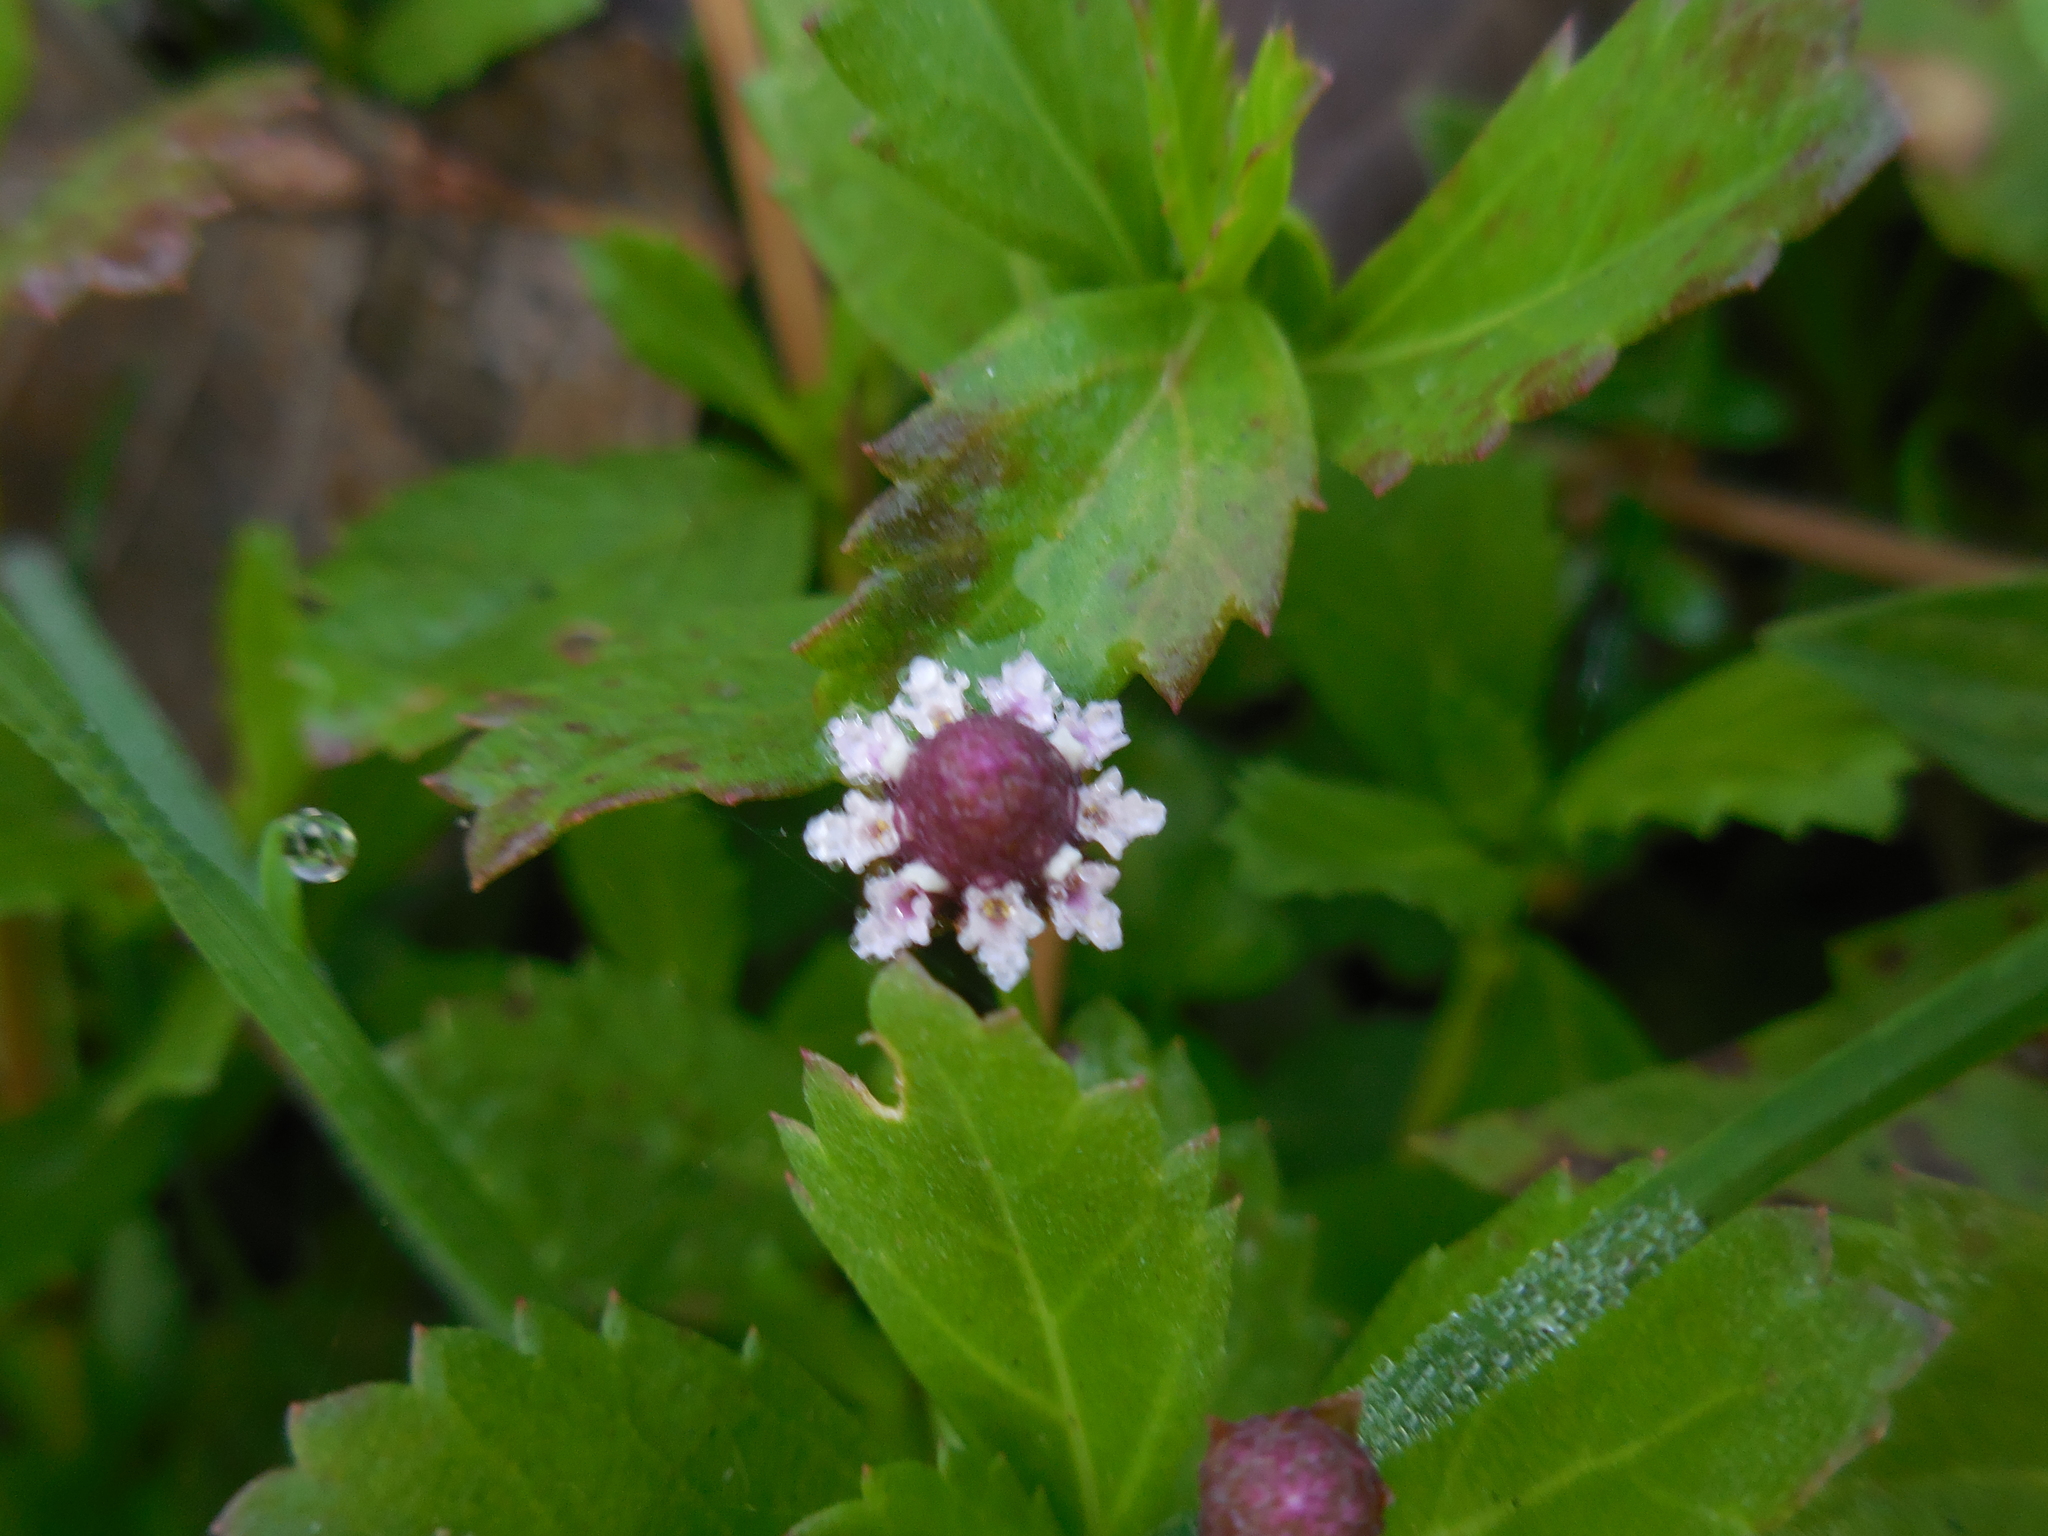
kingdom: Plantae
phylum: Tracheophyta
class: Magnoliopsida
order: Lamiales
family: Verbenaceae
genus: Phyla
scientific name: Phyla nodiflora
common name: Frogfruit
